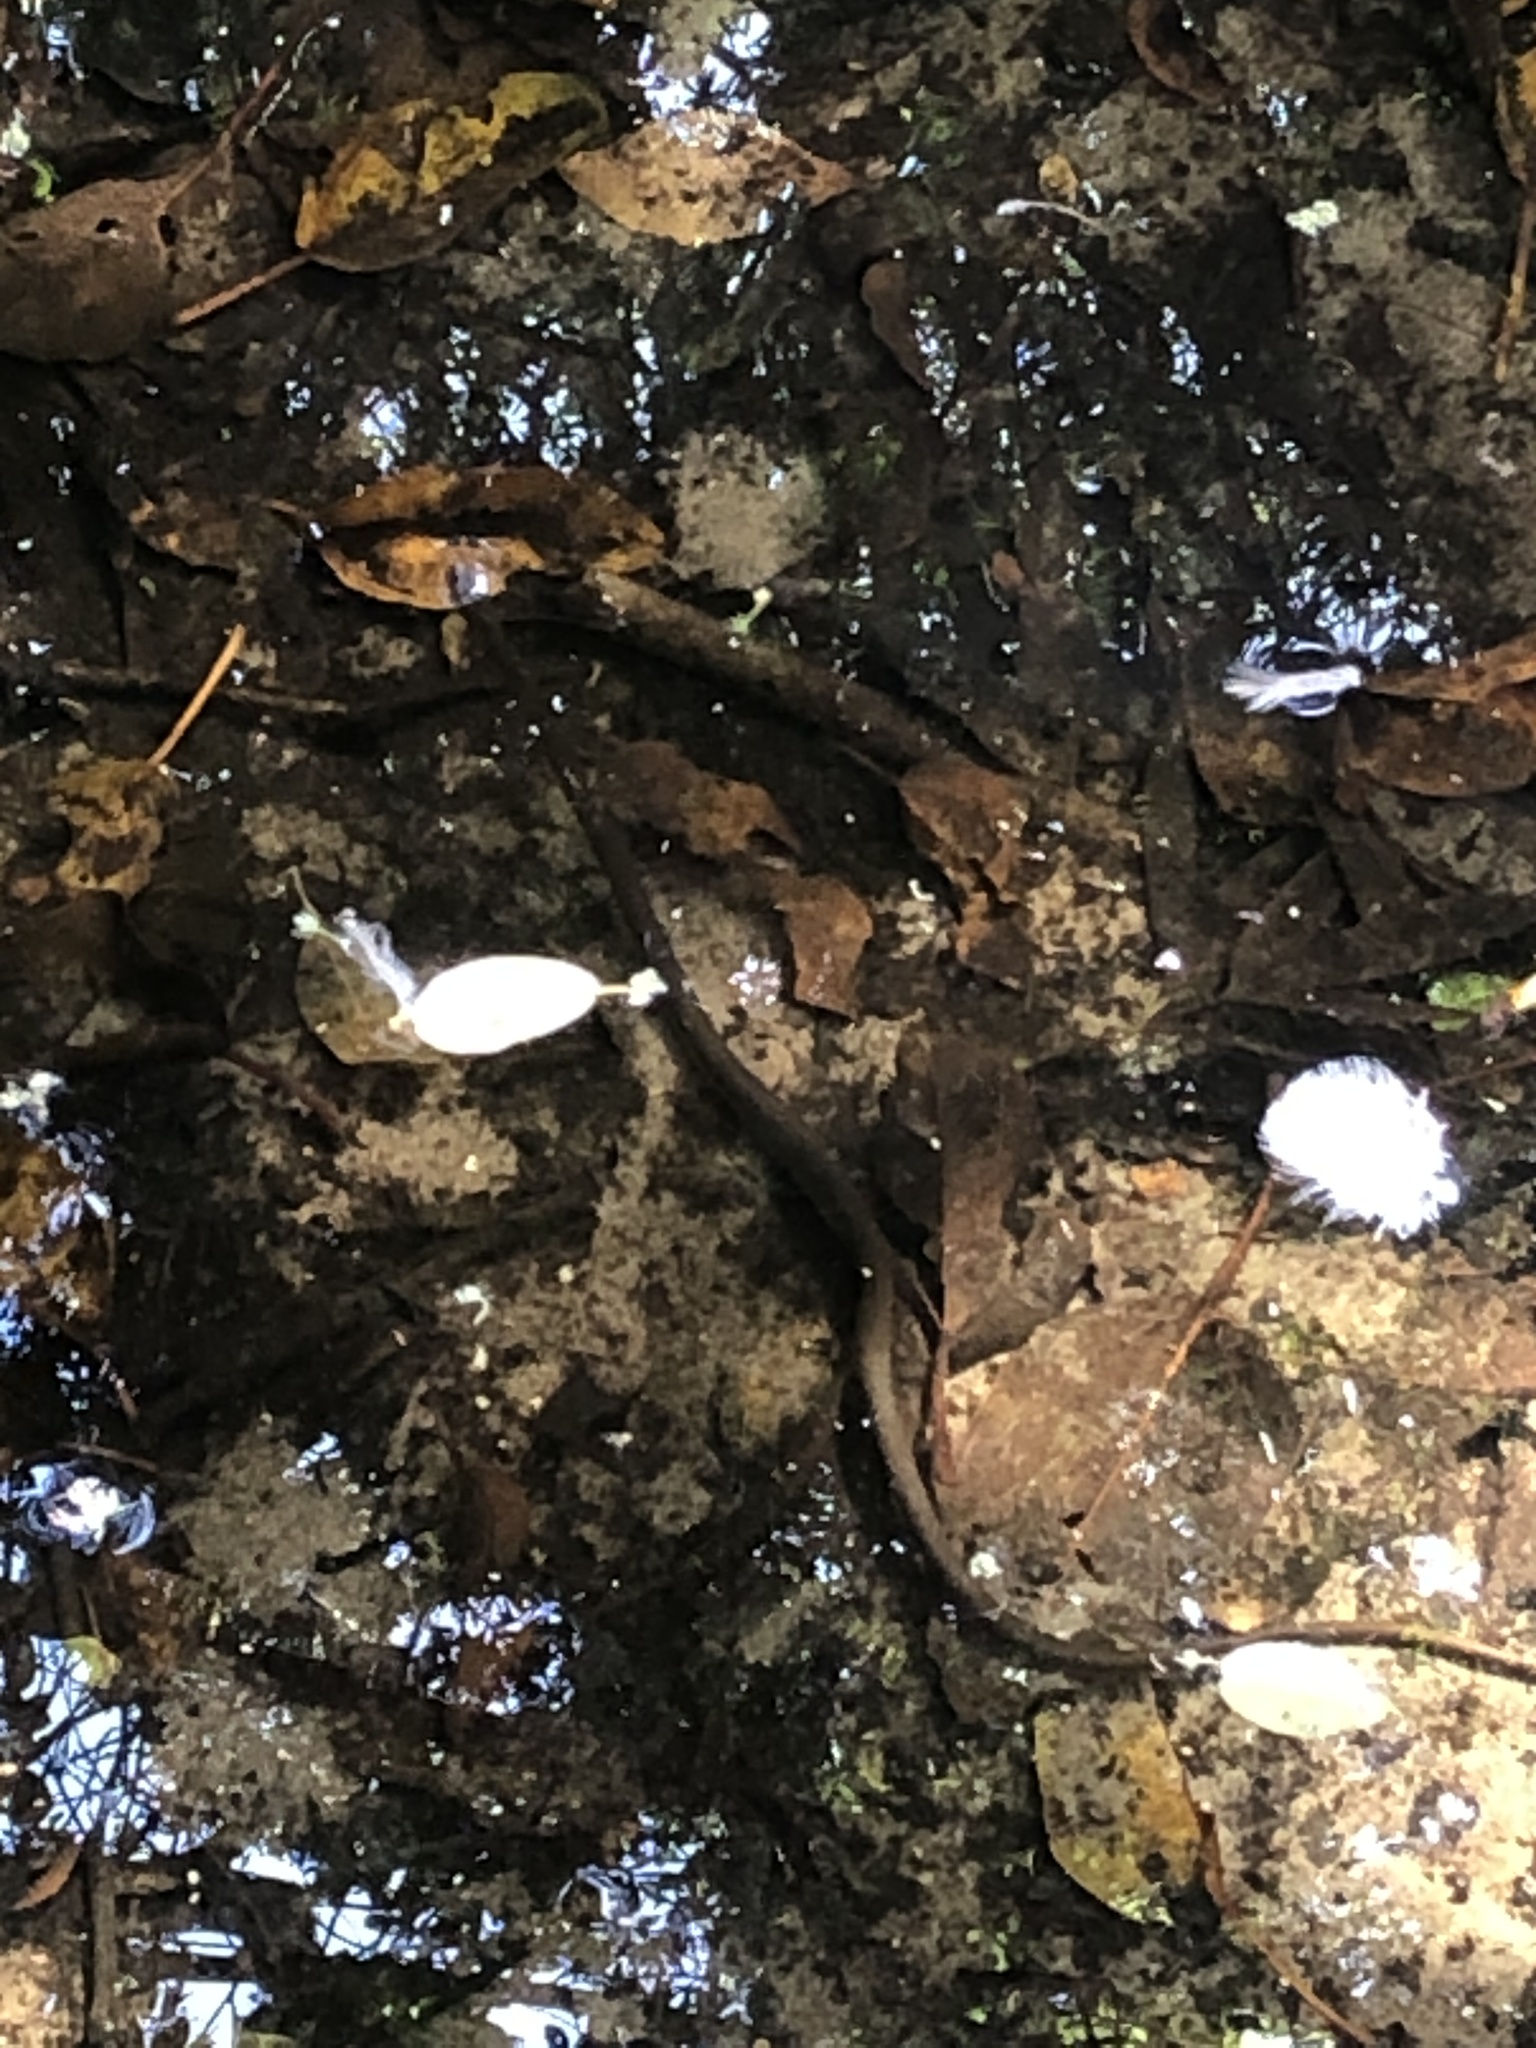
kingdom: Animalia
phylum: Chordata
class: Squamata
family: Lamprophiidae
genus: Lycodonomorphus
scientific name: Lycodonomorphus rufulus
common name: Brown water snake
